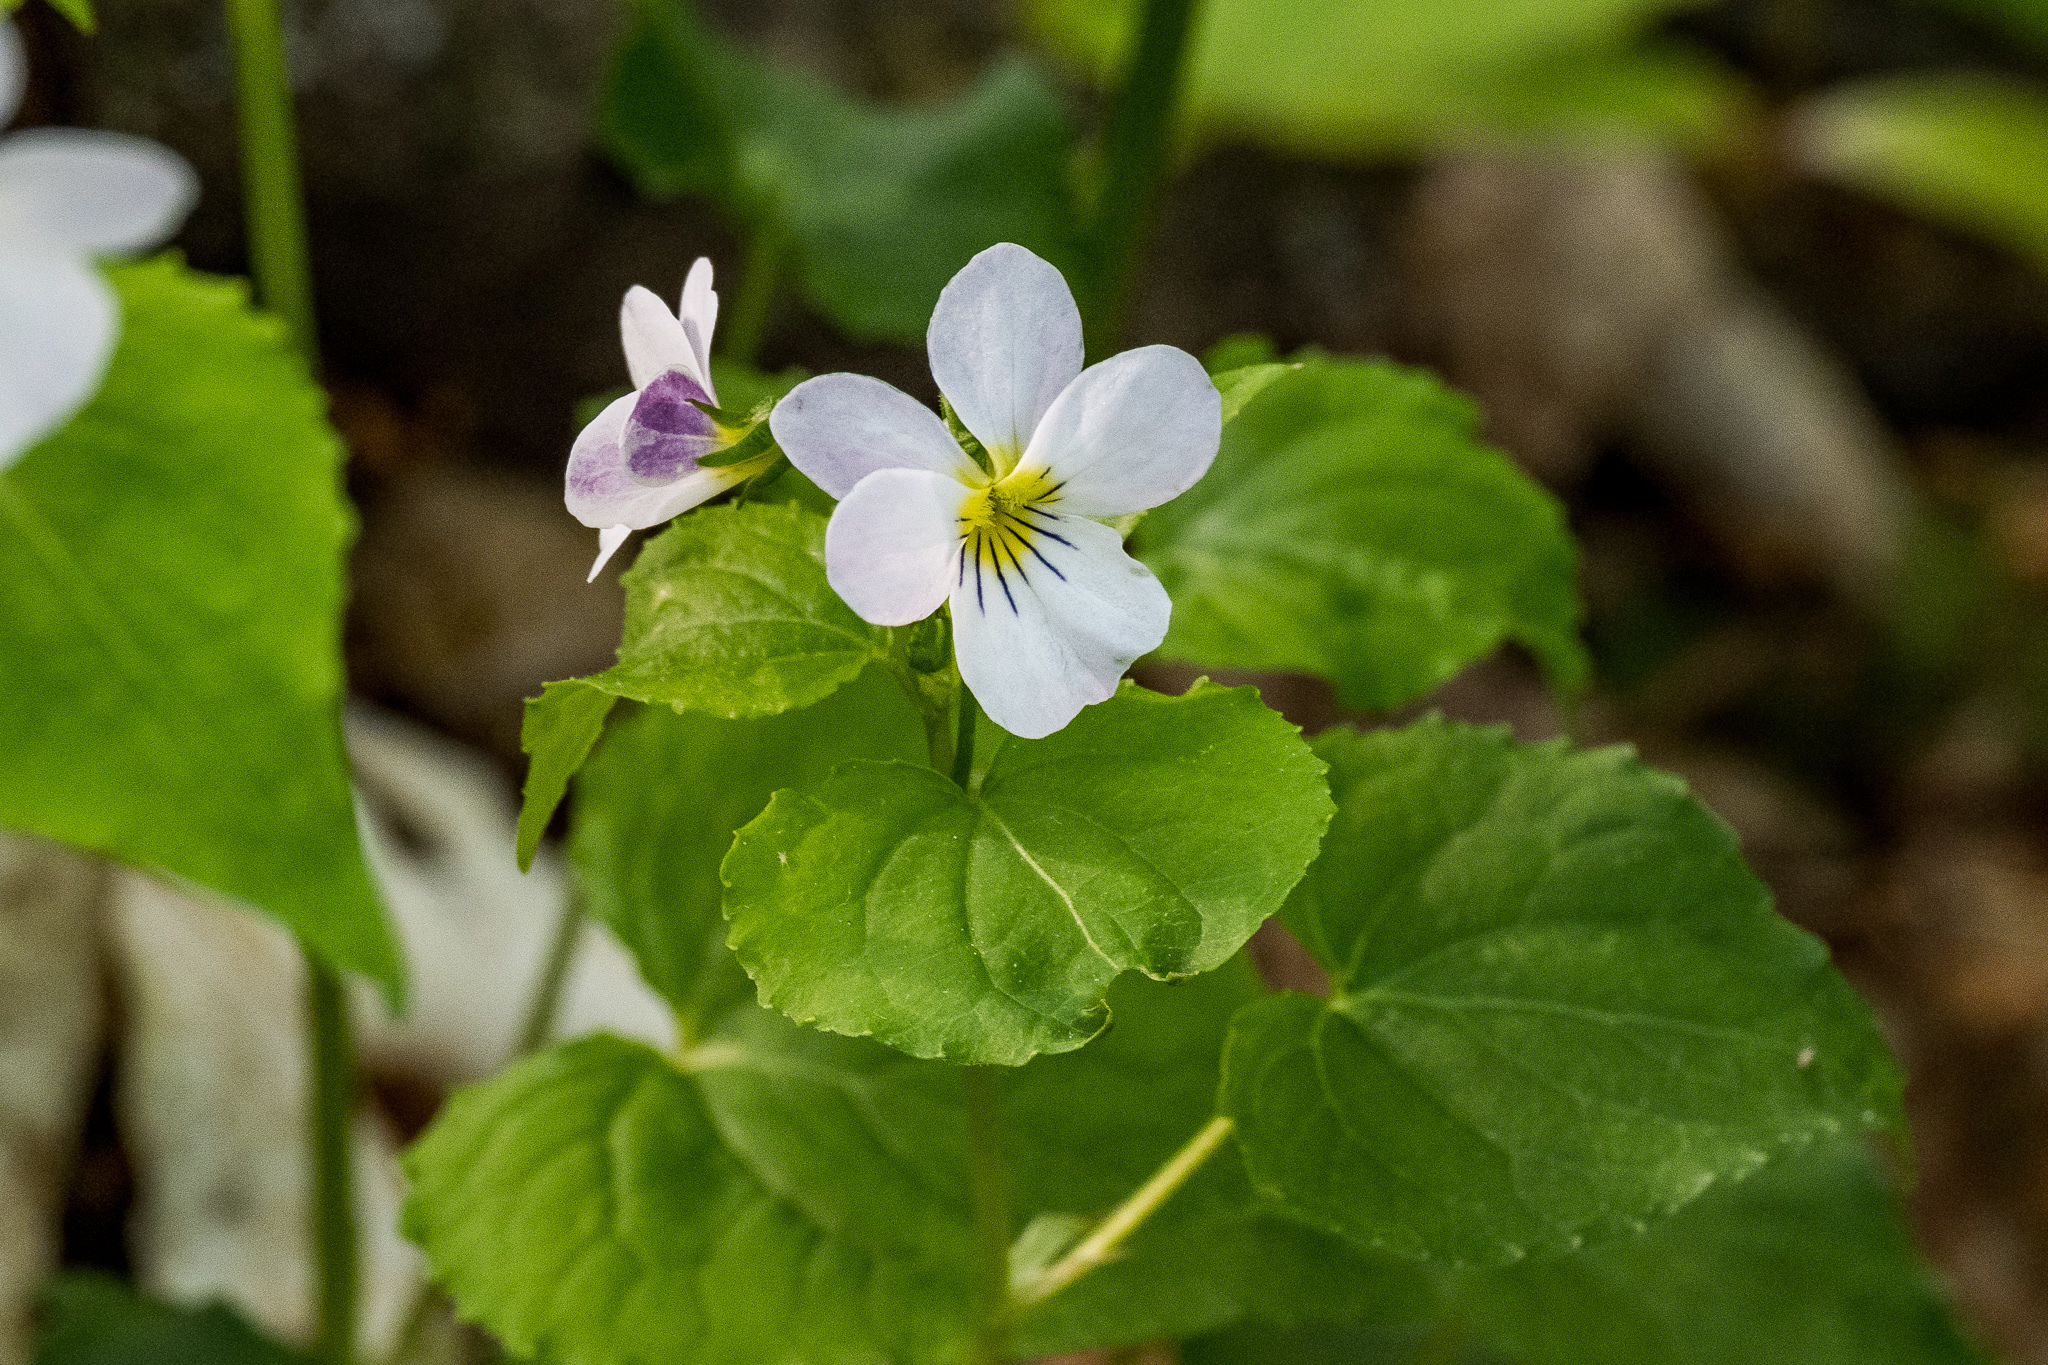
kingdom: Plantae
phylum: Tracheophyta
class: Magnoliopsida
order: Malpighiales
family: Violaceae
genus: Viola
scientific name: Viola canadensis
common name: Canada violet
